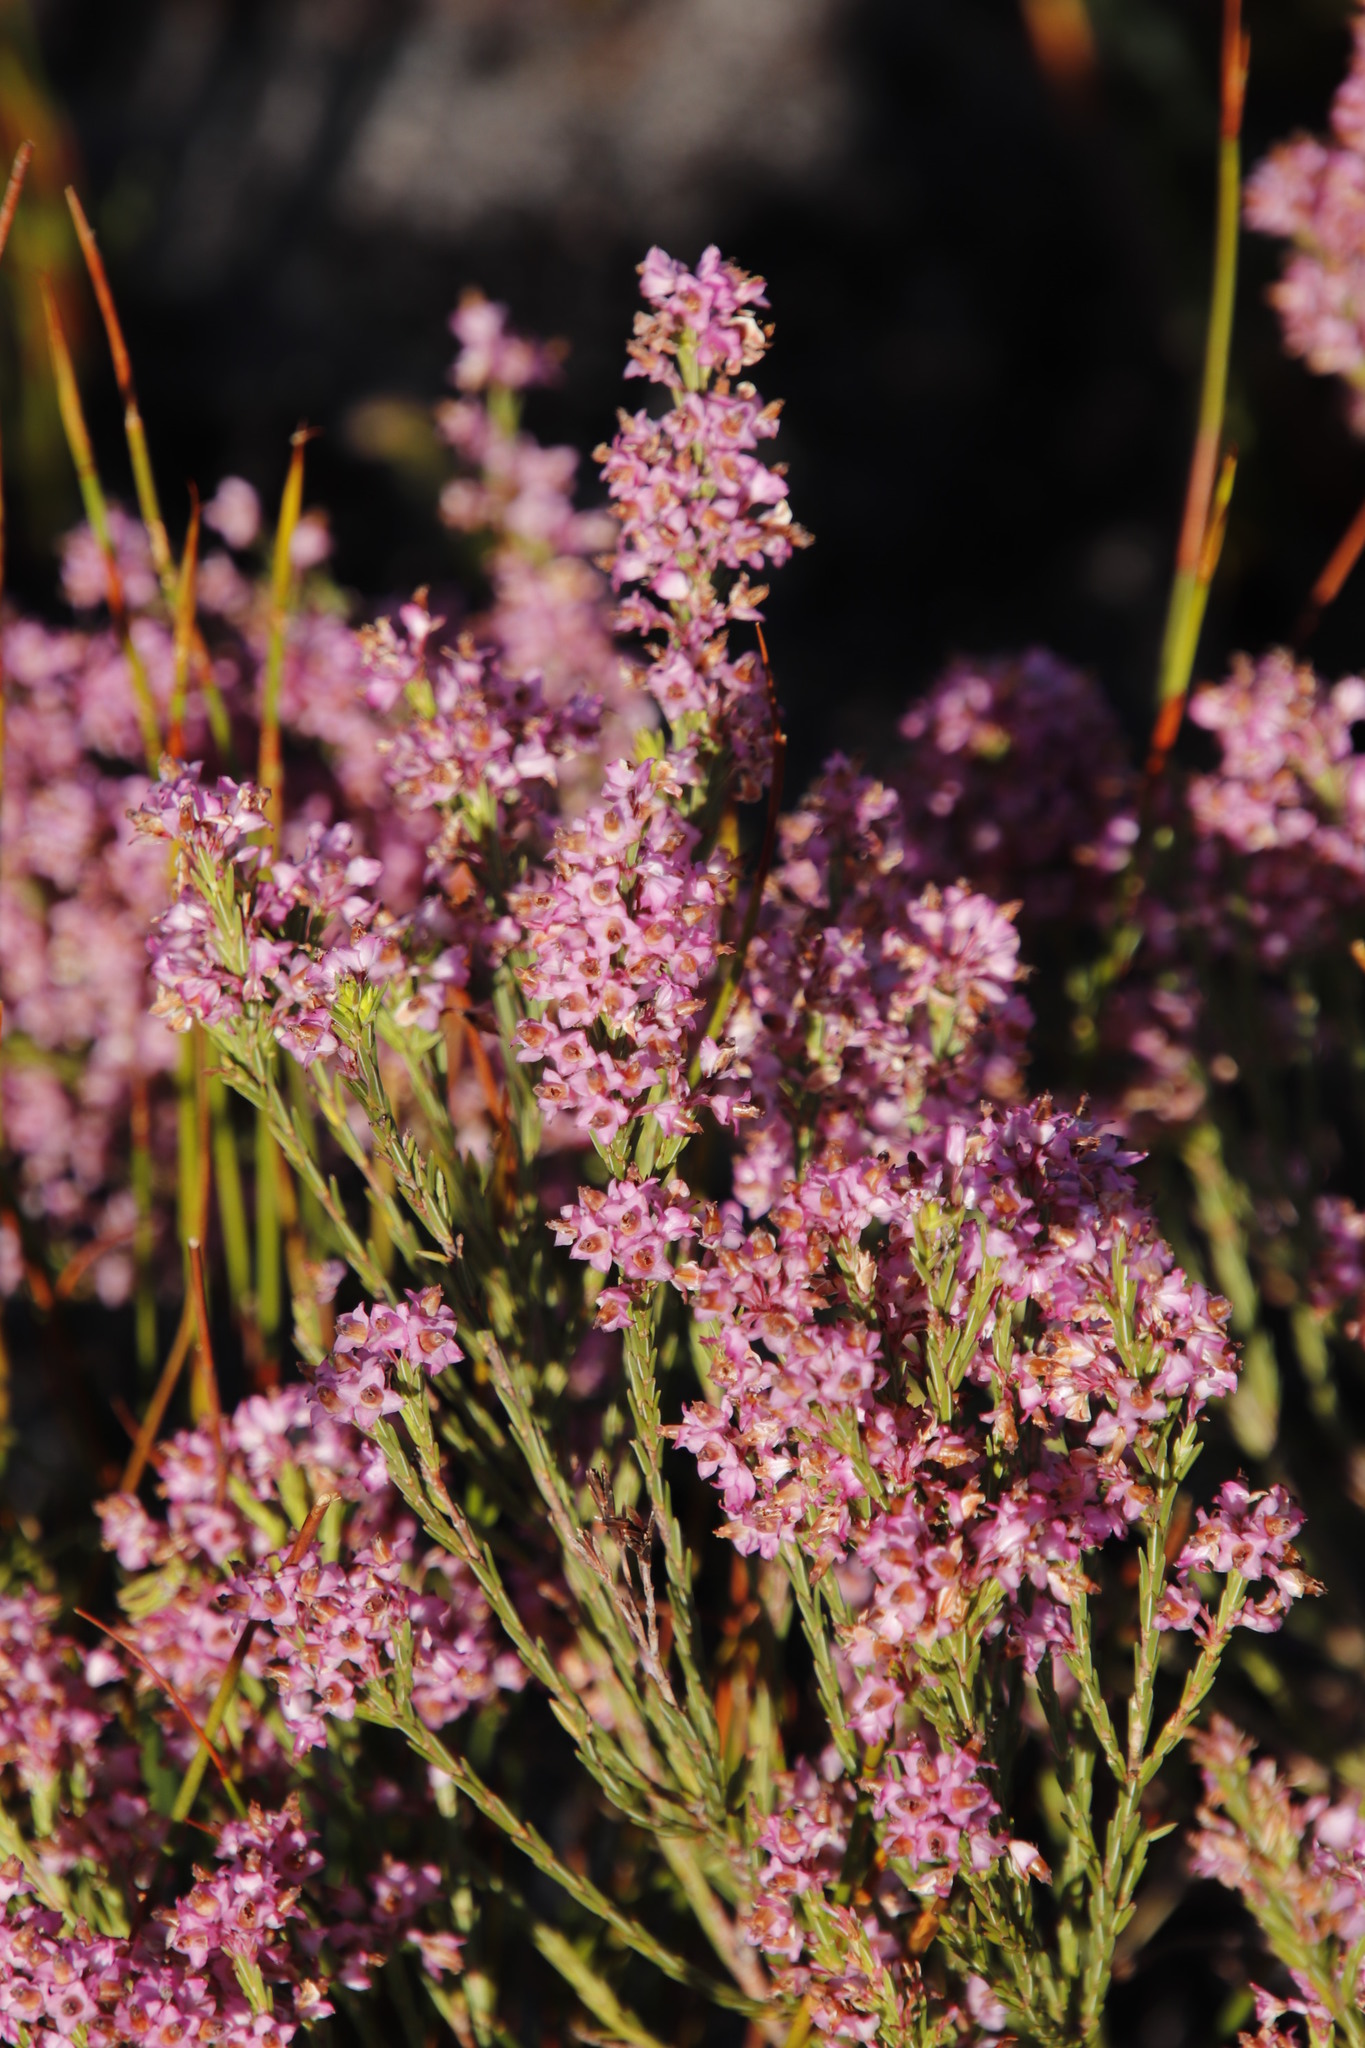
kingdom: Plantae
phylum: Tracheophyta
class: Magnoliopsida
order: Ericales
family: Ericaceae
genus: Erica
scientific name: Erica corifolia
